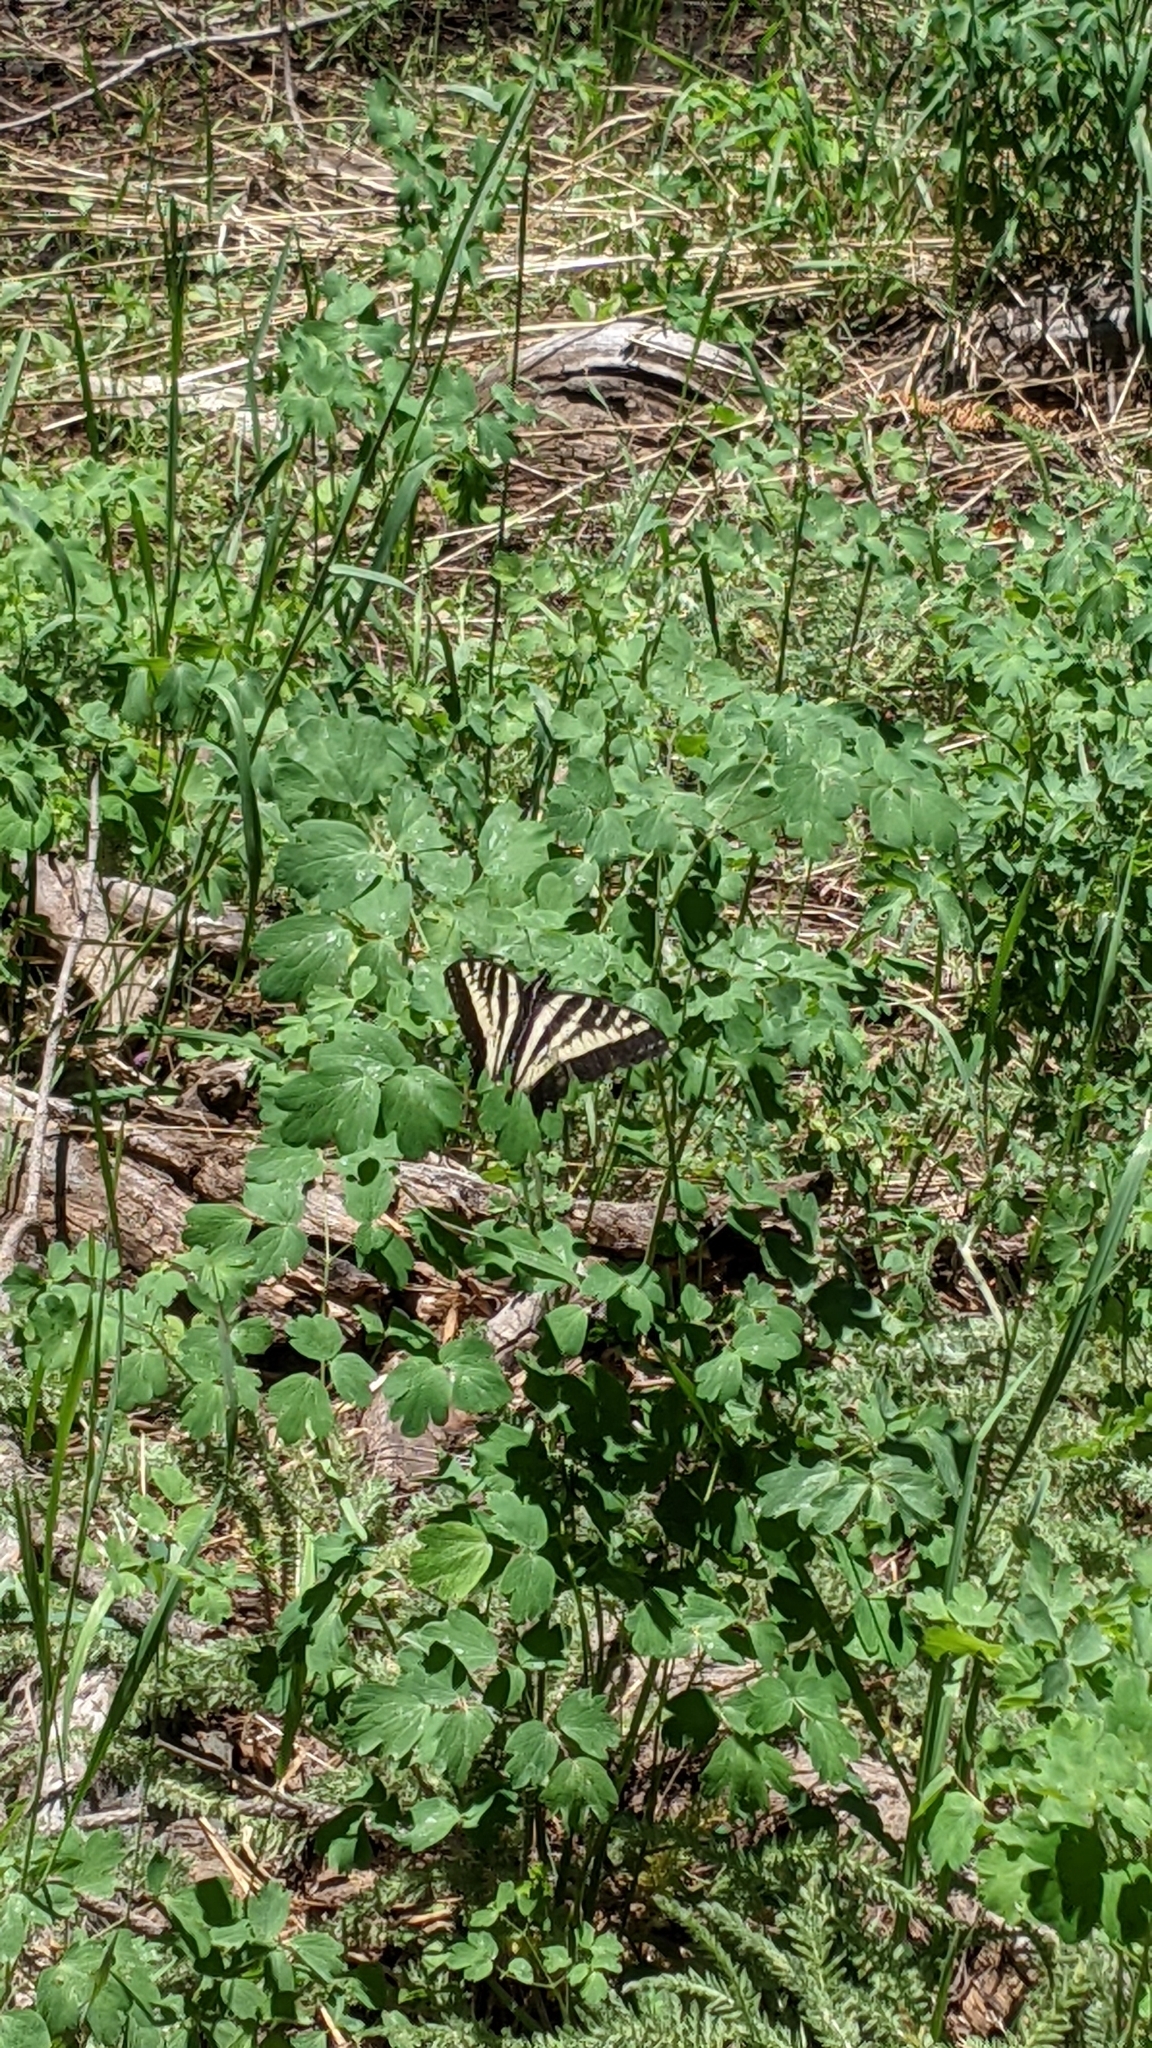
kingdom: Animalia
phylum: Arthropoda
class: Insecta
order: Lepidoptera
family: Papilionidae
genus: Papilio
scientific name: Papilio eurymedon
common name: Pale tiger swallowtail
